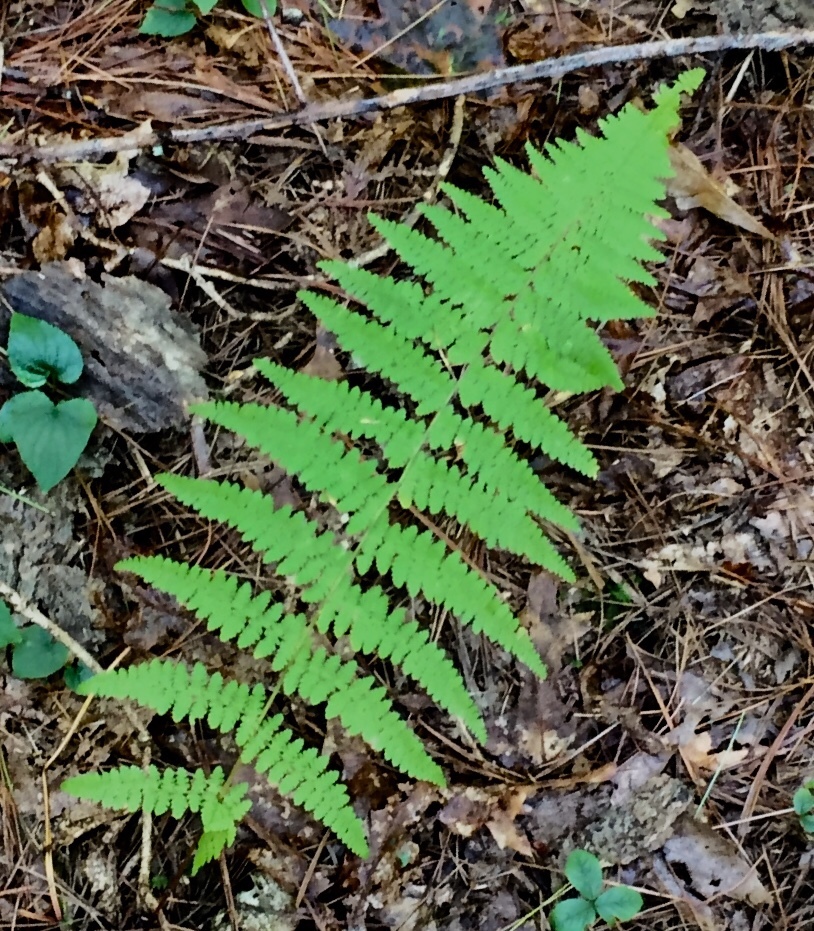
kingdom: Plantae
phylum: Tracheophyta
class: Polypodiopsida
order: Polypodiales
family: Dennstaedtiaceae
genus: Sitobolium
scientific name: Sitobolium punctilobum
